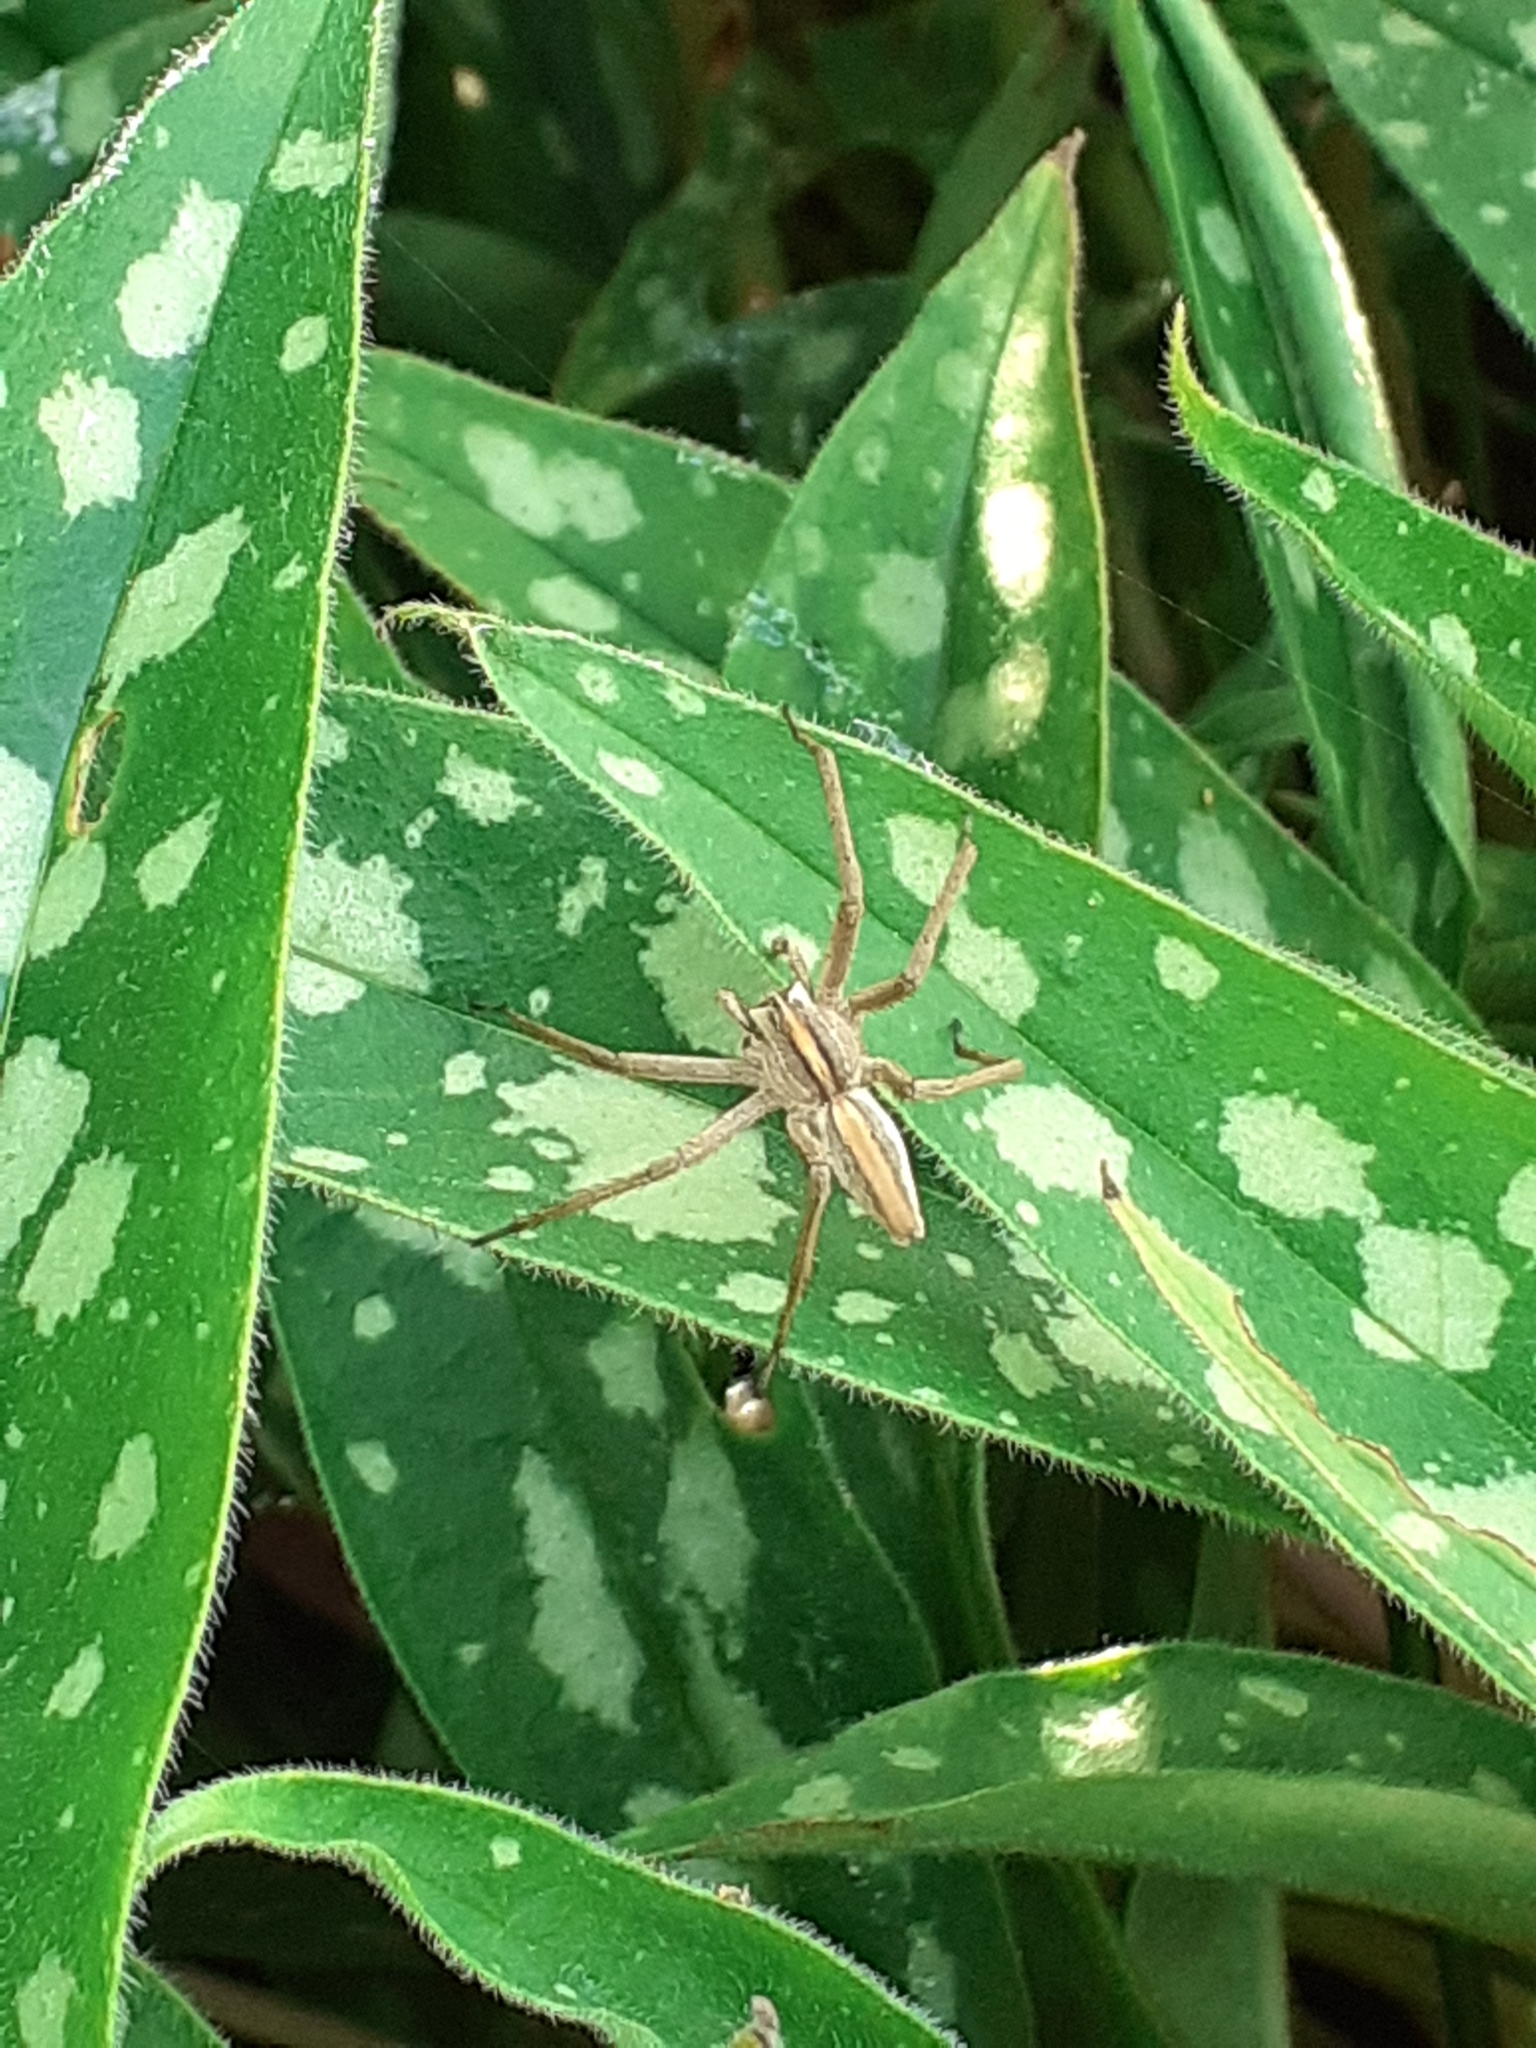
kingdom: Animalia
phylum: Arthropoda
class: Arachnida
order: Araneae
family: Pisauridae
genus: Pisaura
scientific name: Pisaura mirabilis
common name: Tent spider
